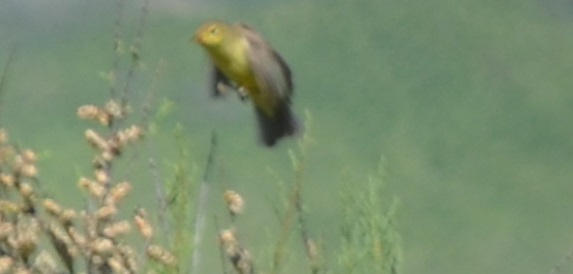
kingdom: Animalia
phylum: Chordata
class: Aves
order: Passeriformes
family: Acrocephalidae
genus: Hippolais
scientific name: Hippolais polyglotta
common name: Melodious warbler
